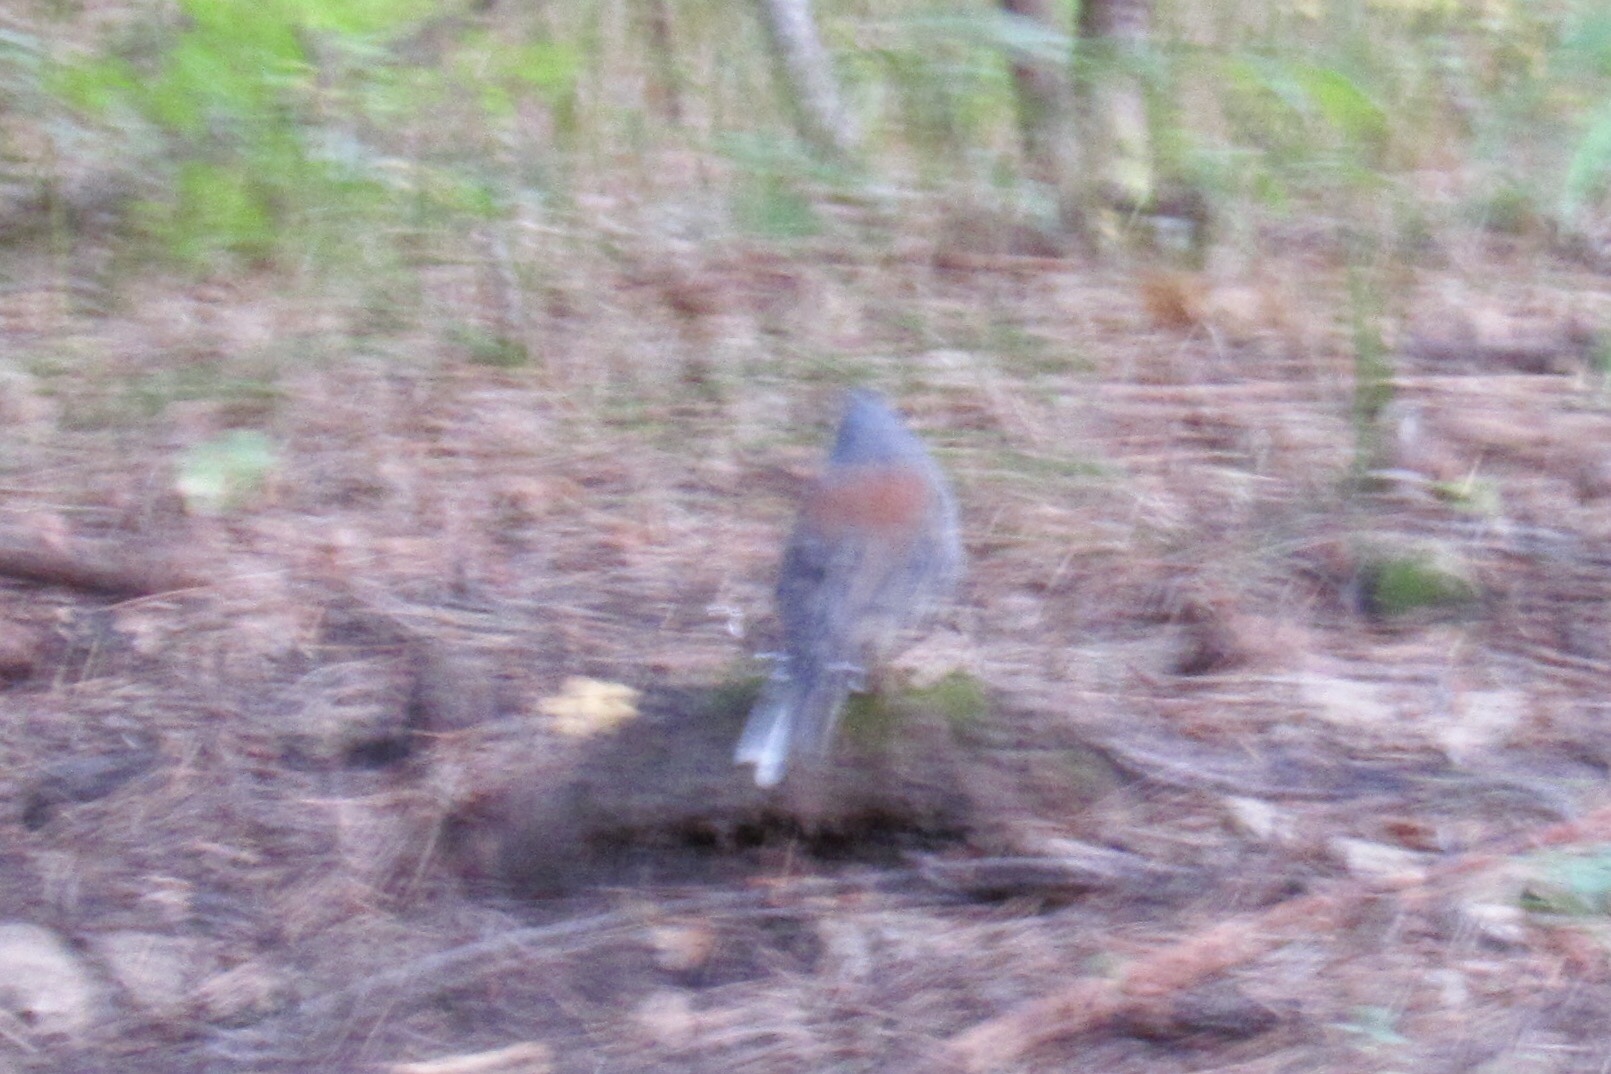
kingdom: Animalia
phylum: Chordata
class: Aves
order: Passeriformes
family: Passerellidae
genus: Junco
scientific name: Junco phaeonotus
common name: Yellow-eyed junco
